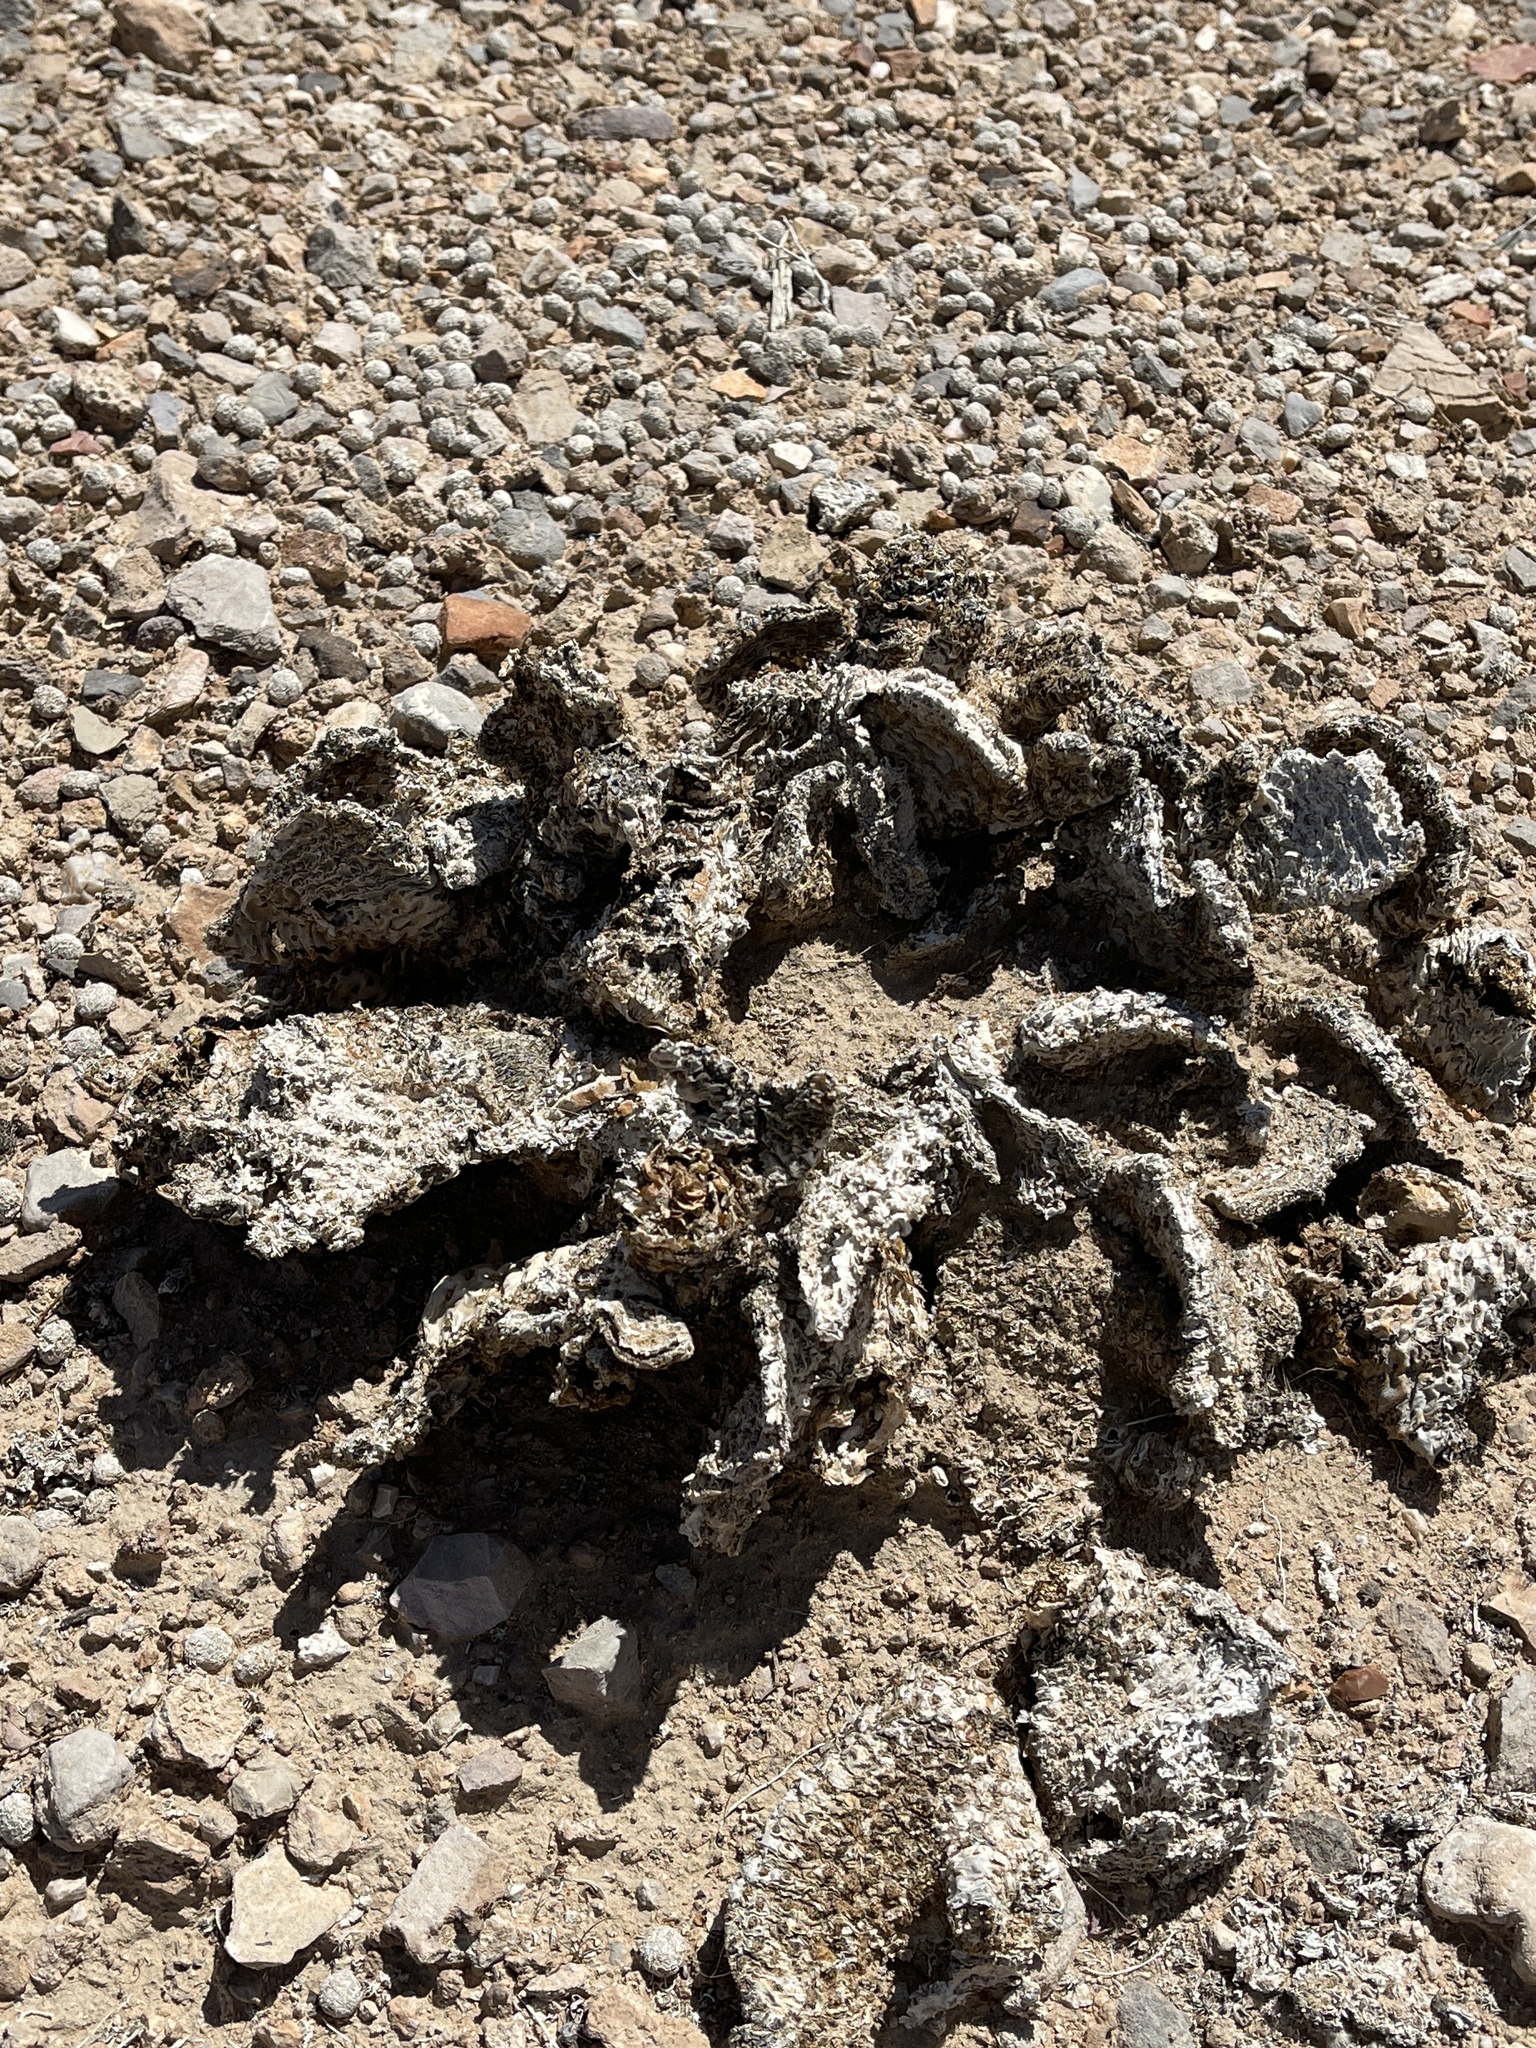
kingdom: Plantae
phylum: Tracheophyta
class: Magnoliopsida
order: Caryophyllales
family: Cactaceae
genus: Opuntia
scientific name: Opuntia basilaris
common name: Beavertail prickly-pear
